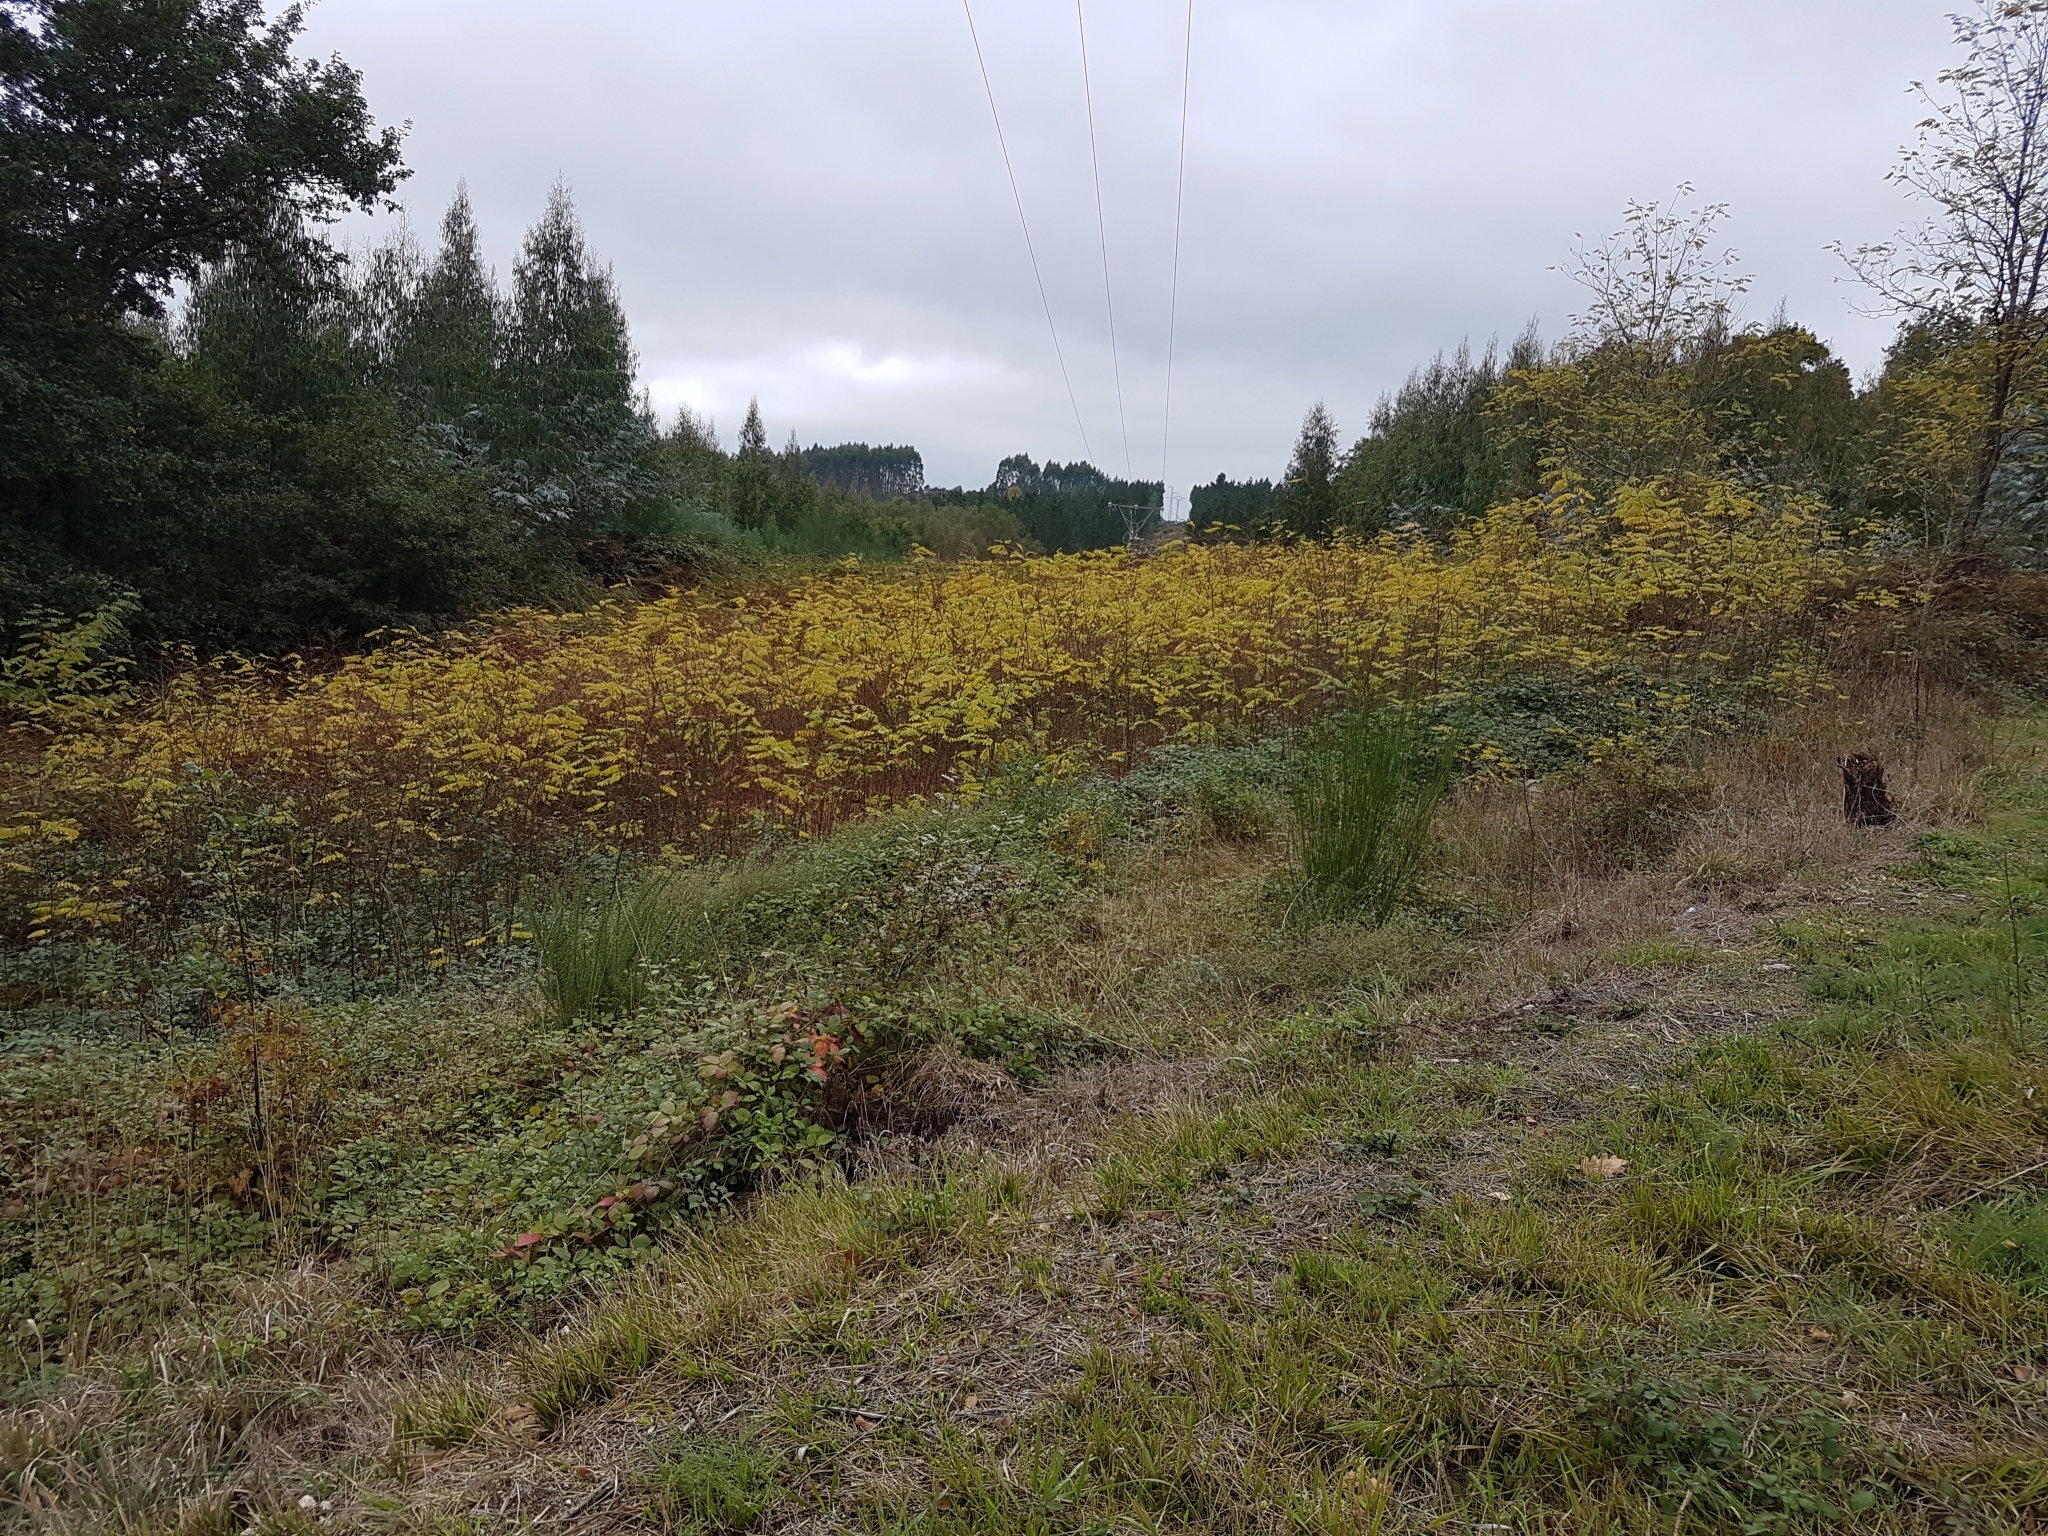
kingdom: Plantae
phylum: Tracheophyta
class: Magnoliopsida
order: Fabales
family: Fabaceae
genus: Robinia
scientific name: Robinia pseudoacacia
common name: Black locust
